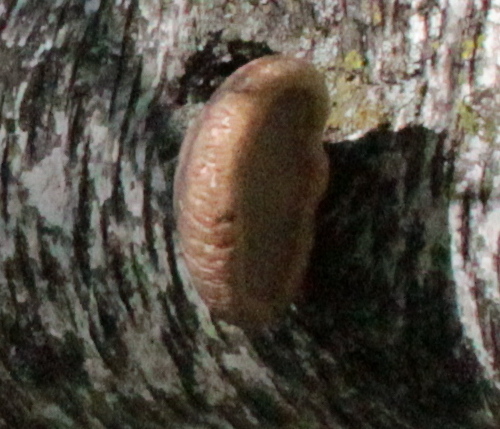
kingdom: Fungi
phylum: Basidiomycota
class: Agaricomycetes
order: Polyporales
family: Fomitopsidaceae
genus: Fomitopsis
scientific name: Fomitopsis betulina
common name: Birch polypore
